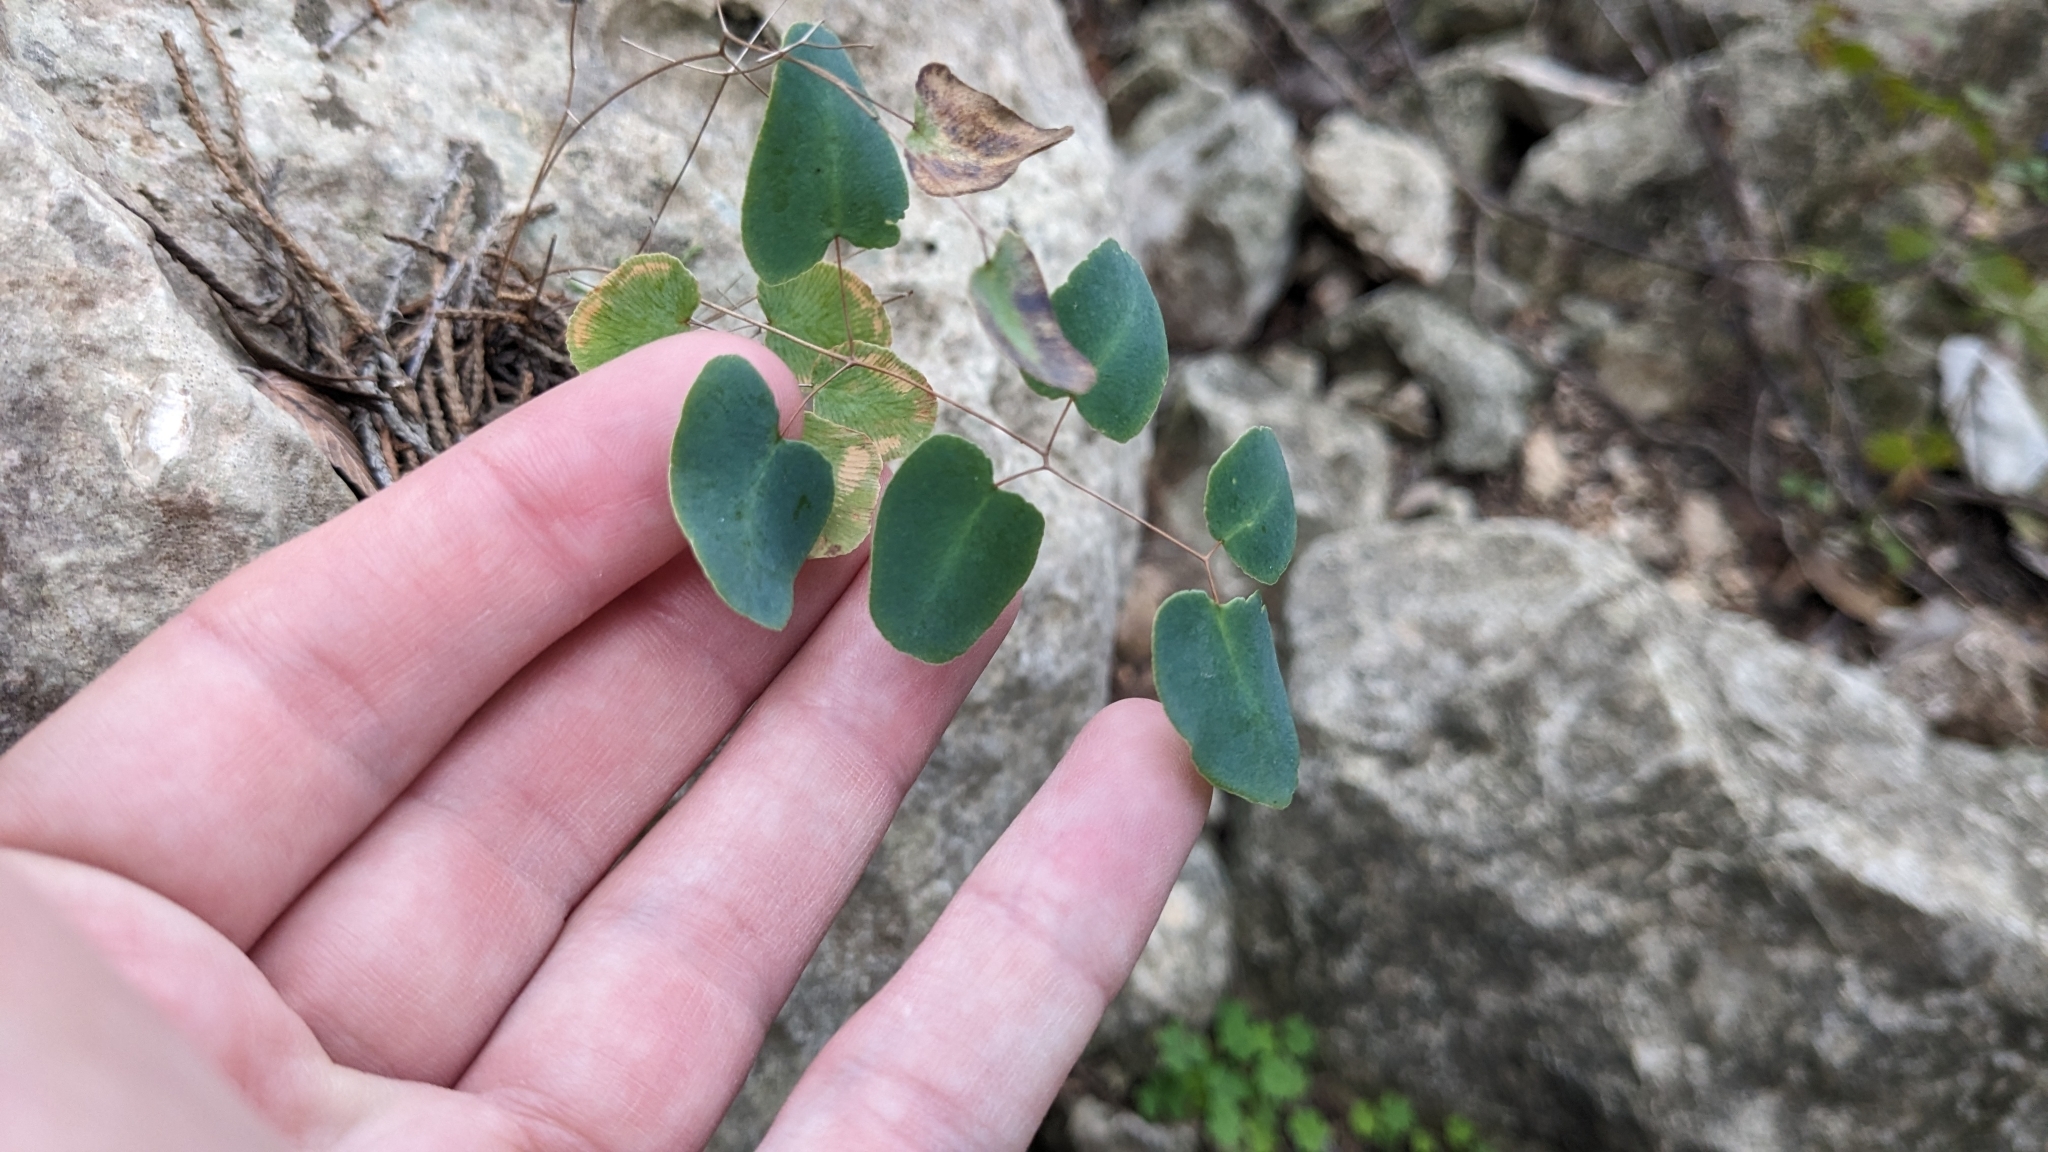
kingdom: Plantae
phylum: Tracheophyta
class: Polypodiopsida
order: Polypodiales
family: Pteridaceae
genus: Pellaea
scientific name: Pellaea ovata
